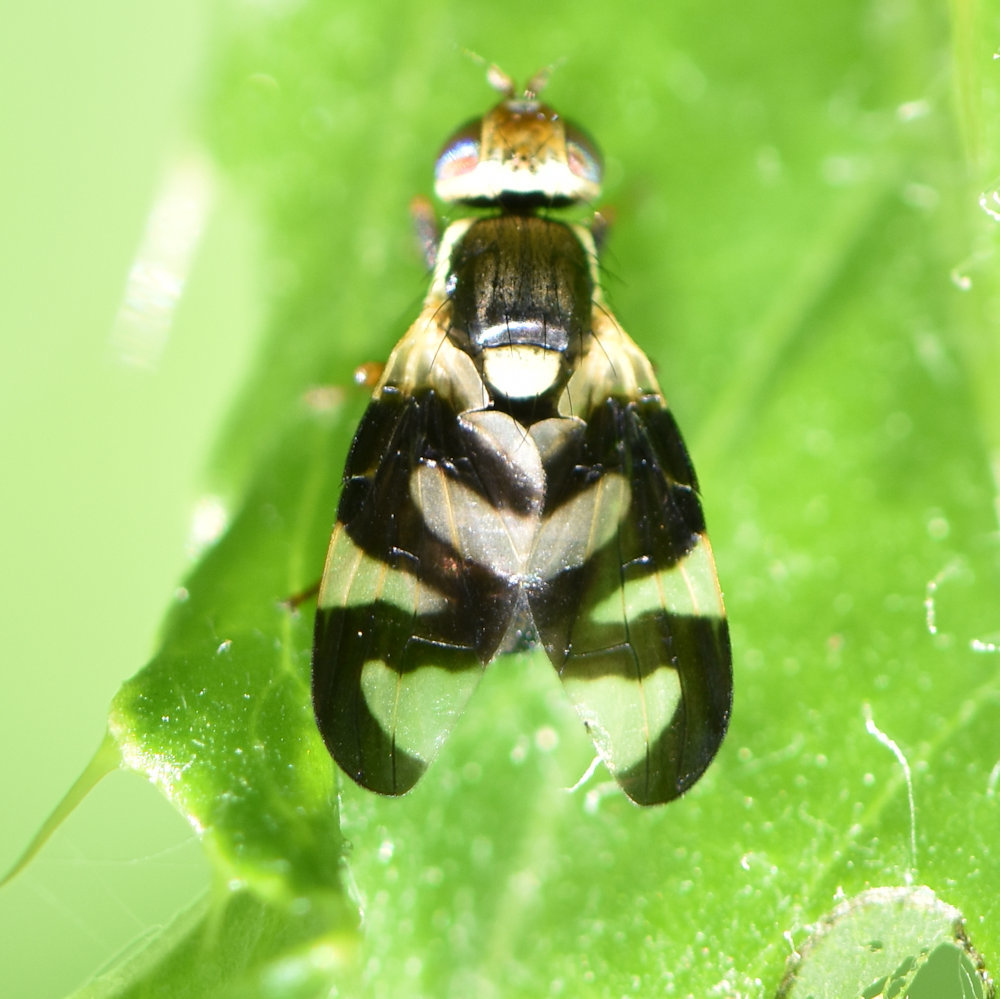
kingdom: Animalia
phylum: Arthropoda
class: Insecta
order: Diptera
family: Tephritidae
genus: Urophora
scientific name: Urophora cardui
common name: Fruit fly
